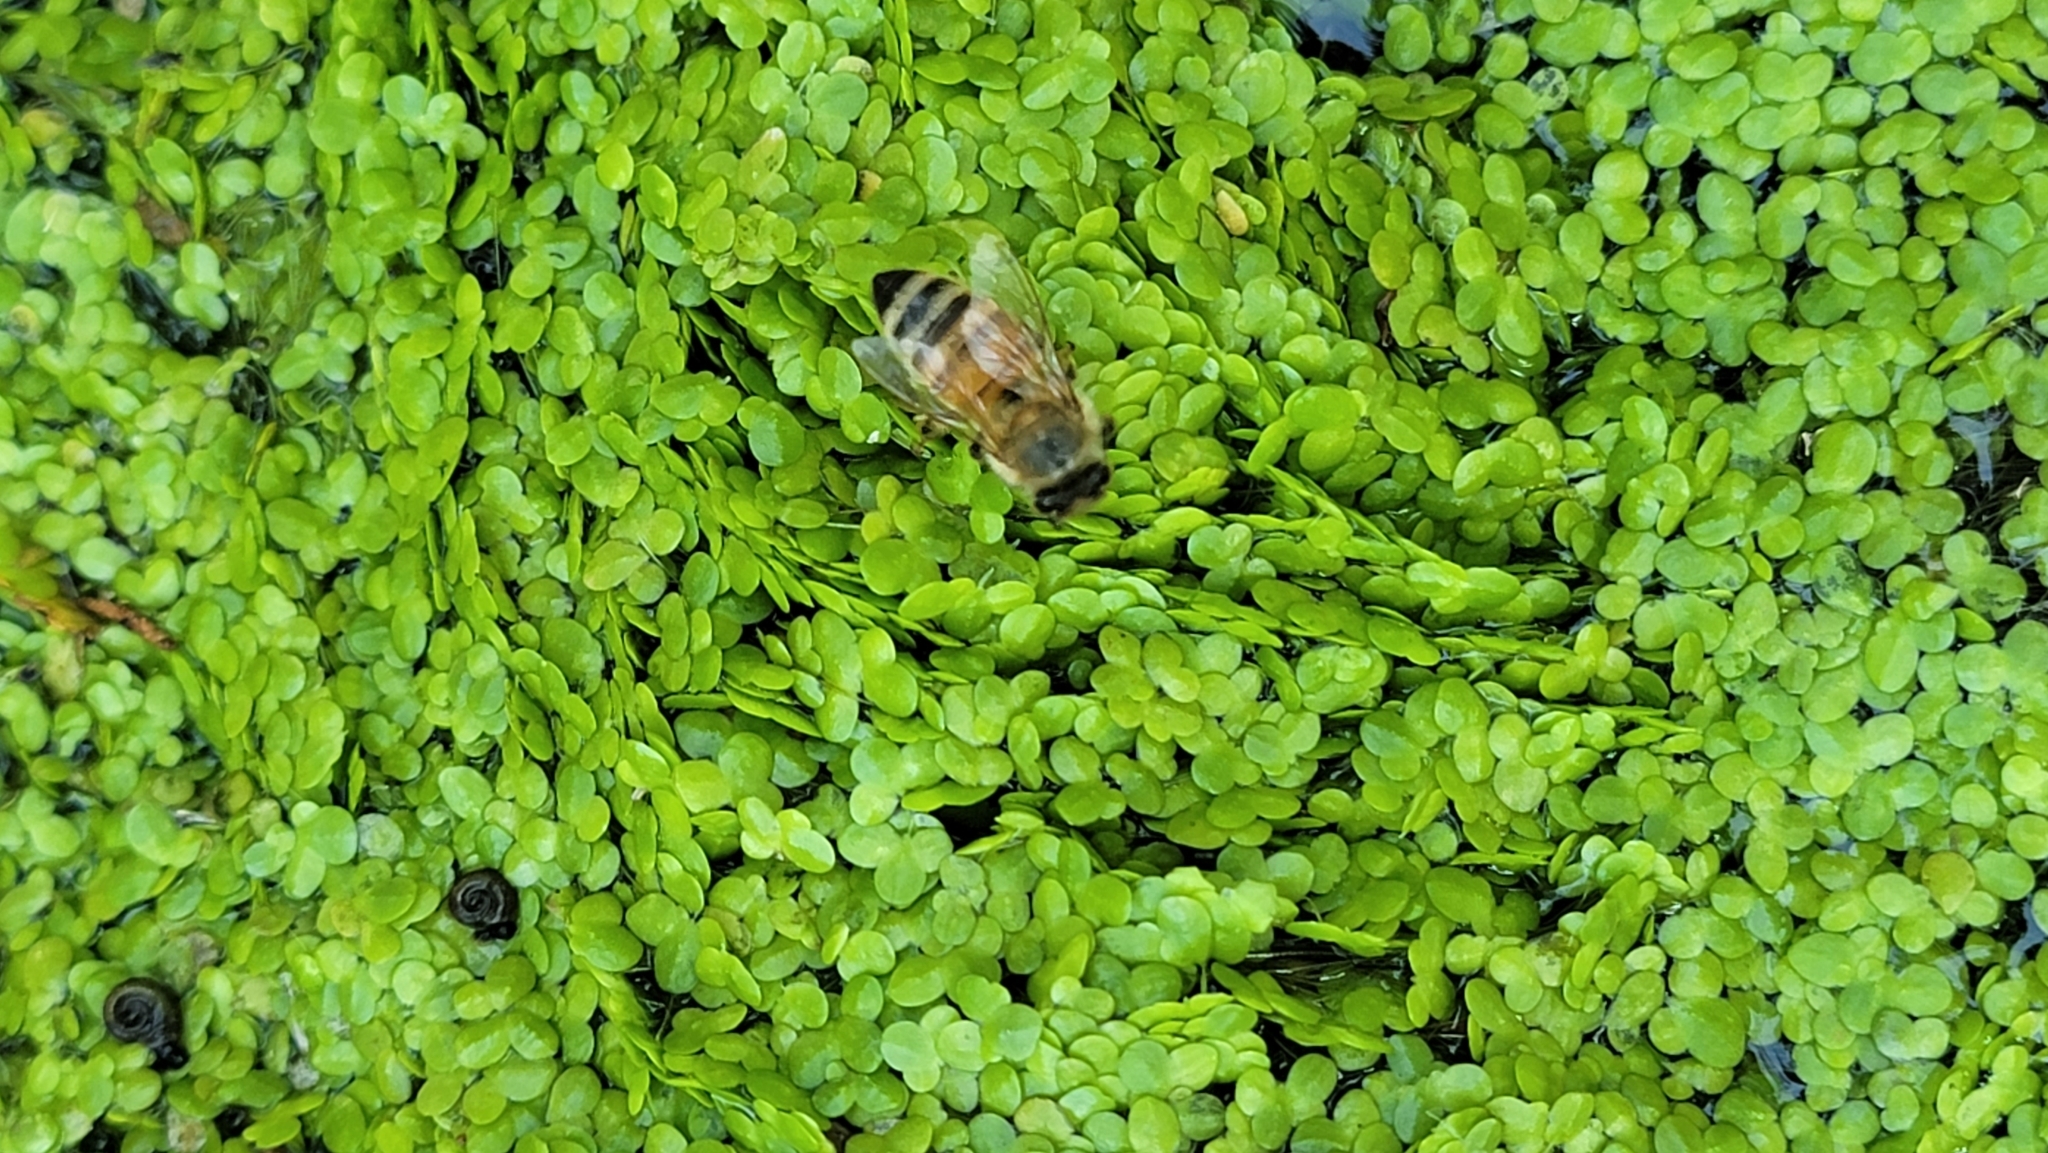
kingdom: Animalia
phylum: Arthropoda
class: Insecta
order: Hymenoptera
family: Apidae
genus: Apis
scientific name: Apis mellifera
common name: Honey bee
